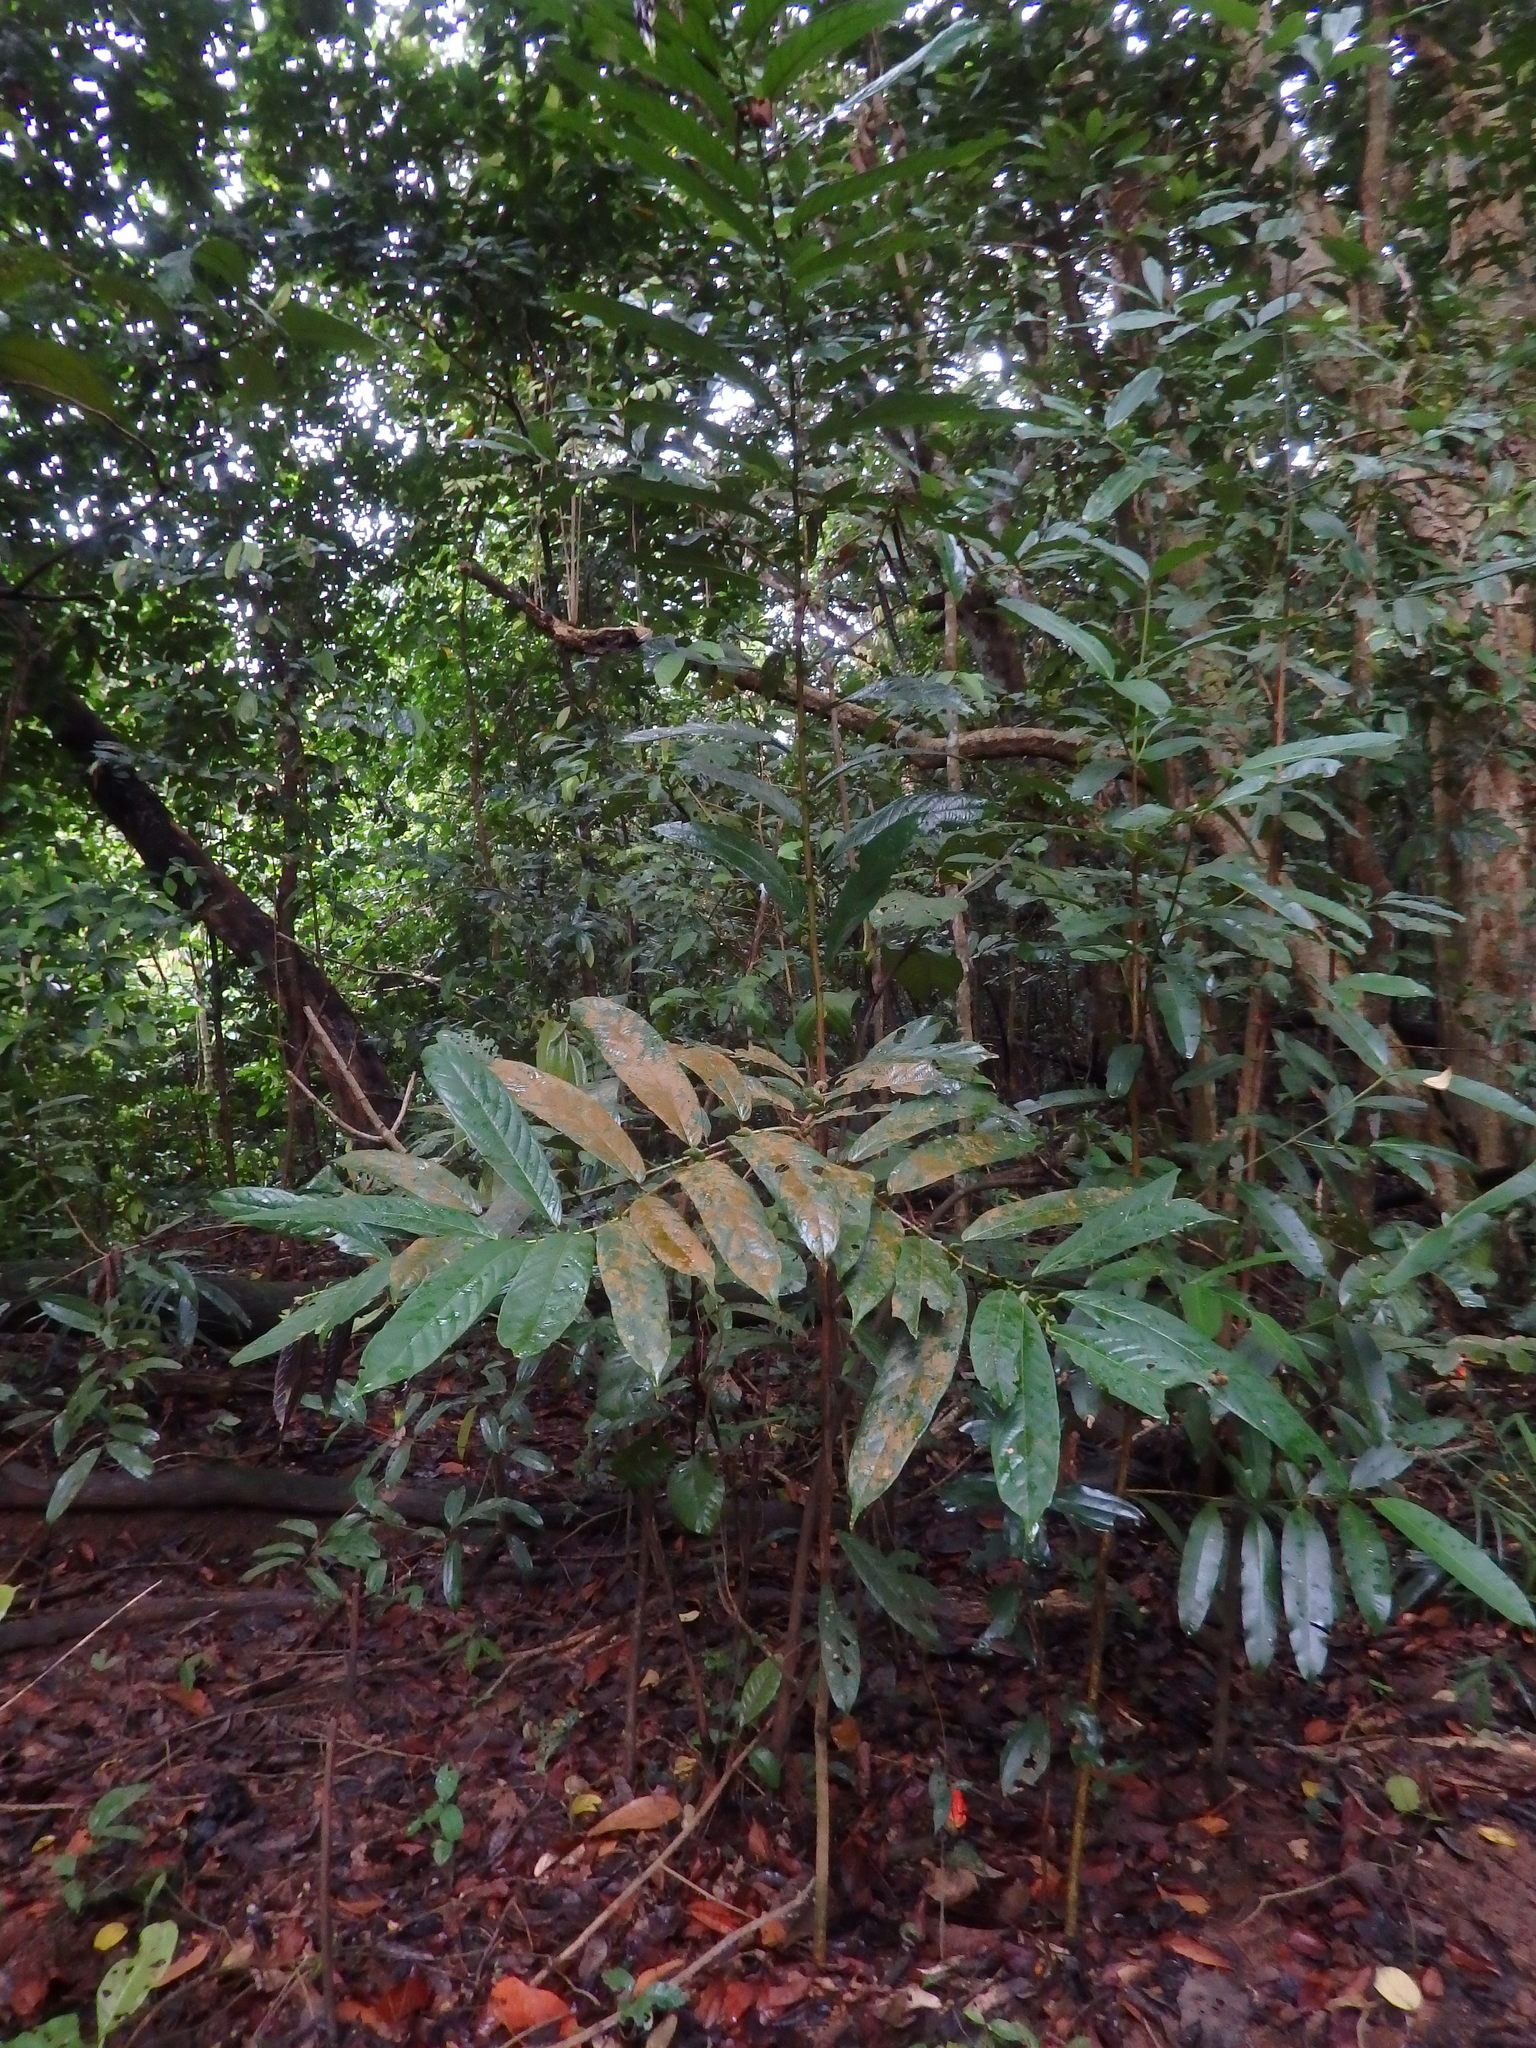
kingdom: Plantae
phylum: Tracheophyta
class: Magnoliopsida
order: Malpighiales
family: Phyllanthaceae
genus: Aporosa
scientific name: Aporosa benthamiana
